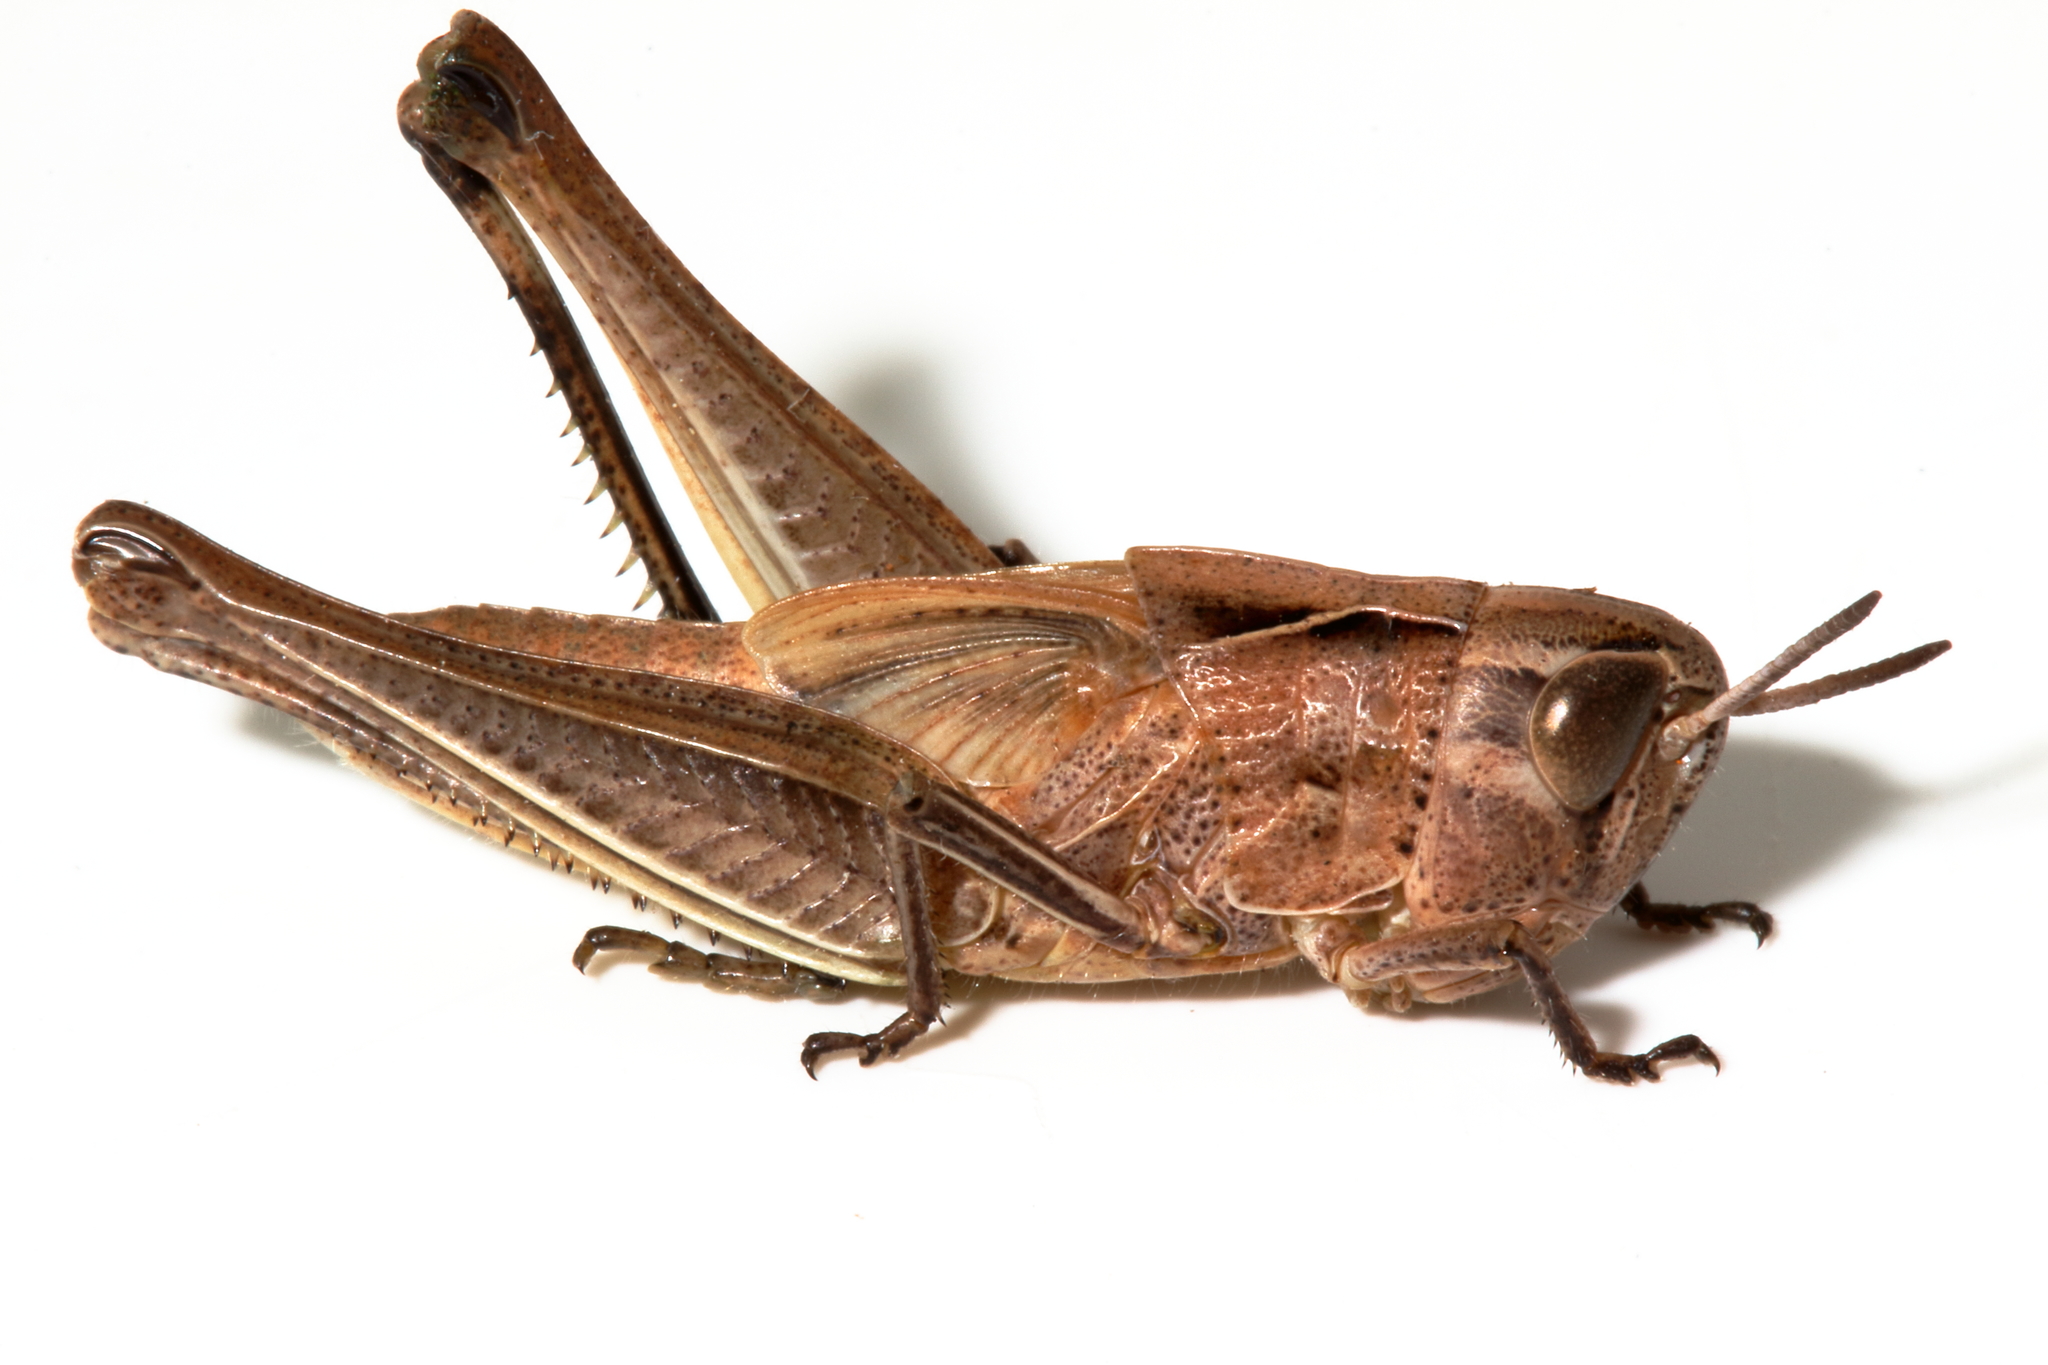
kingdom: Animalia
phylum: Arthropoda
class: Insecta
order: Orthoptera
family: Acrididae
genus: Caledia
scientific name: Caledia captiva
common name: Caledia
